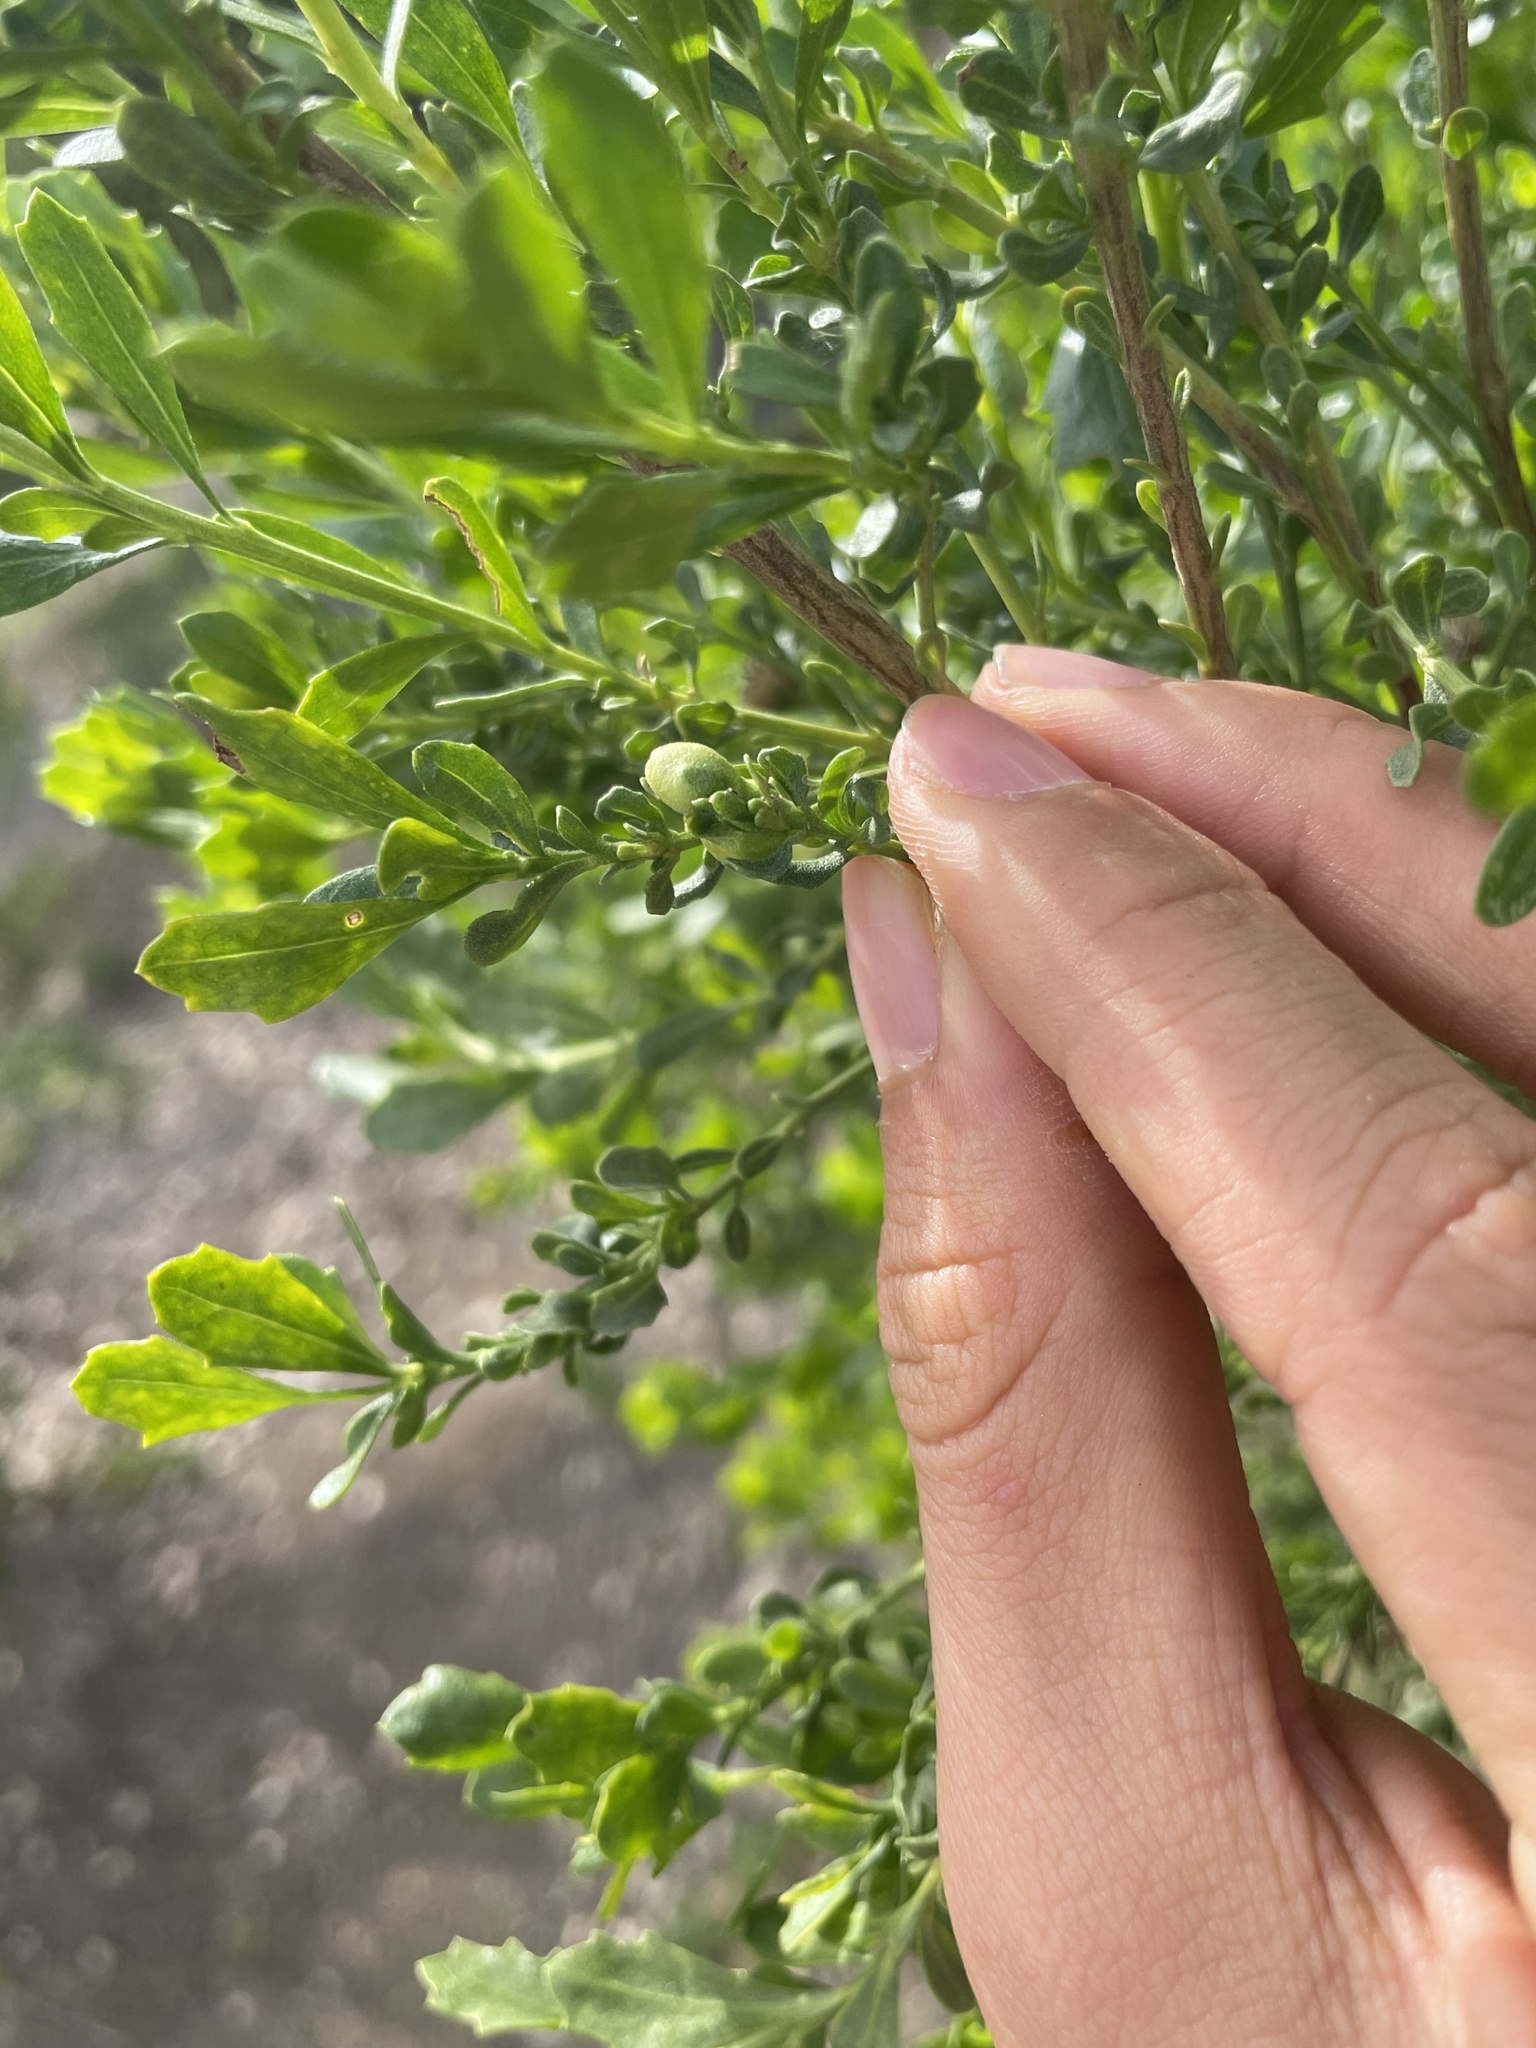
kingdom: Plantae
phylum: Tracheophyta
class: Magnoliopsida
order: Asterales
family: Asteraceae
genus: Baccharis
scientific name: Baccharis pilularis
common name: Coyotebrush
